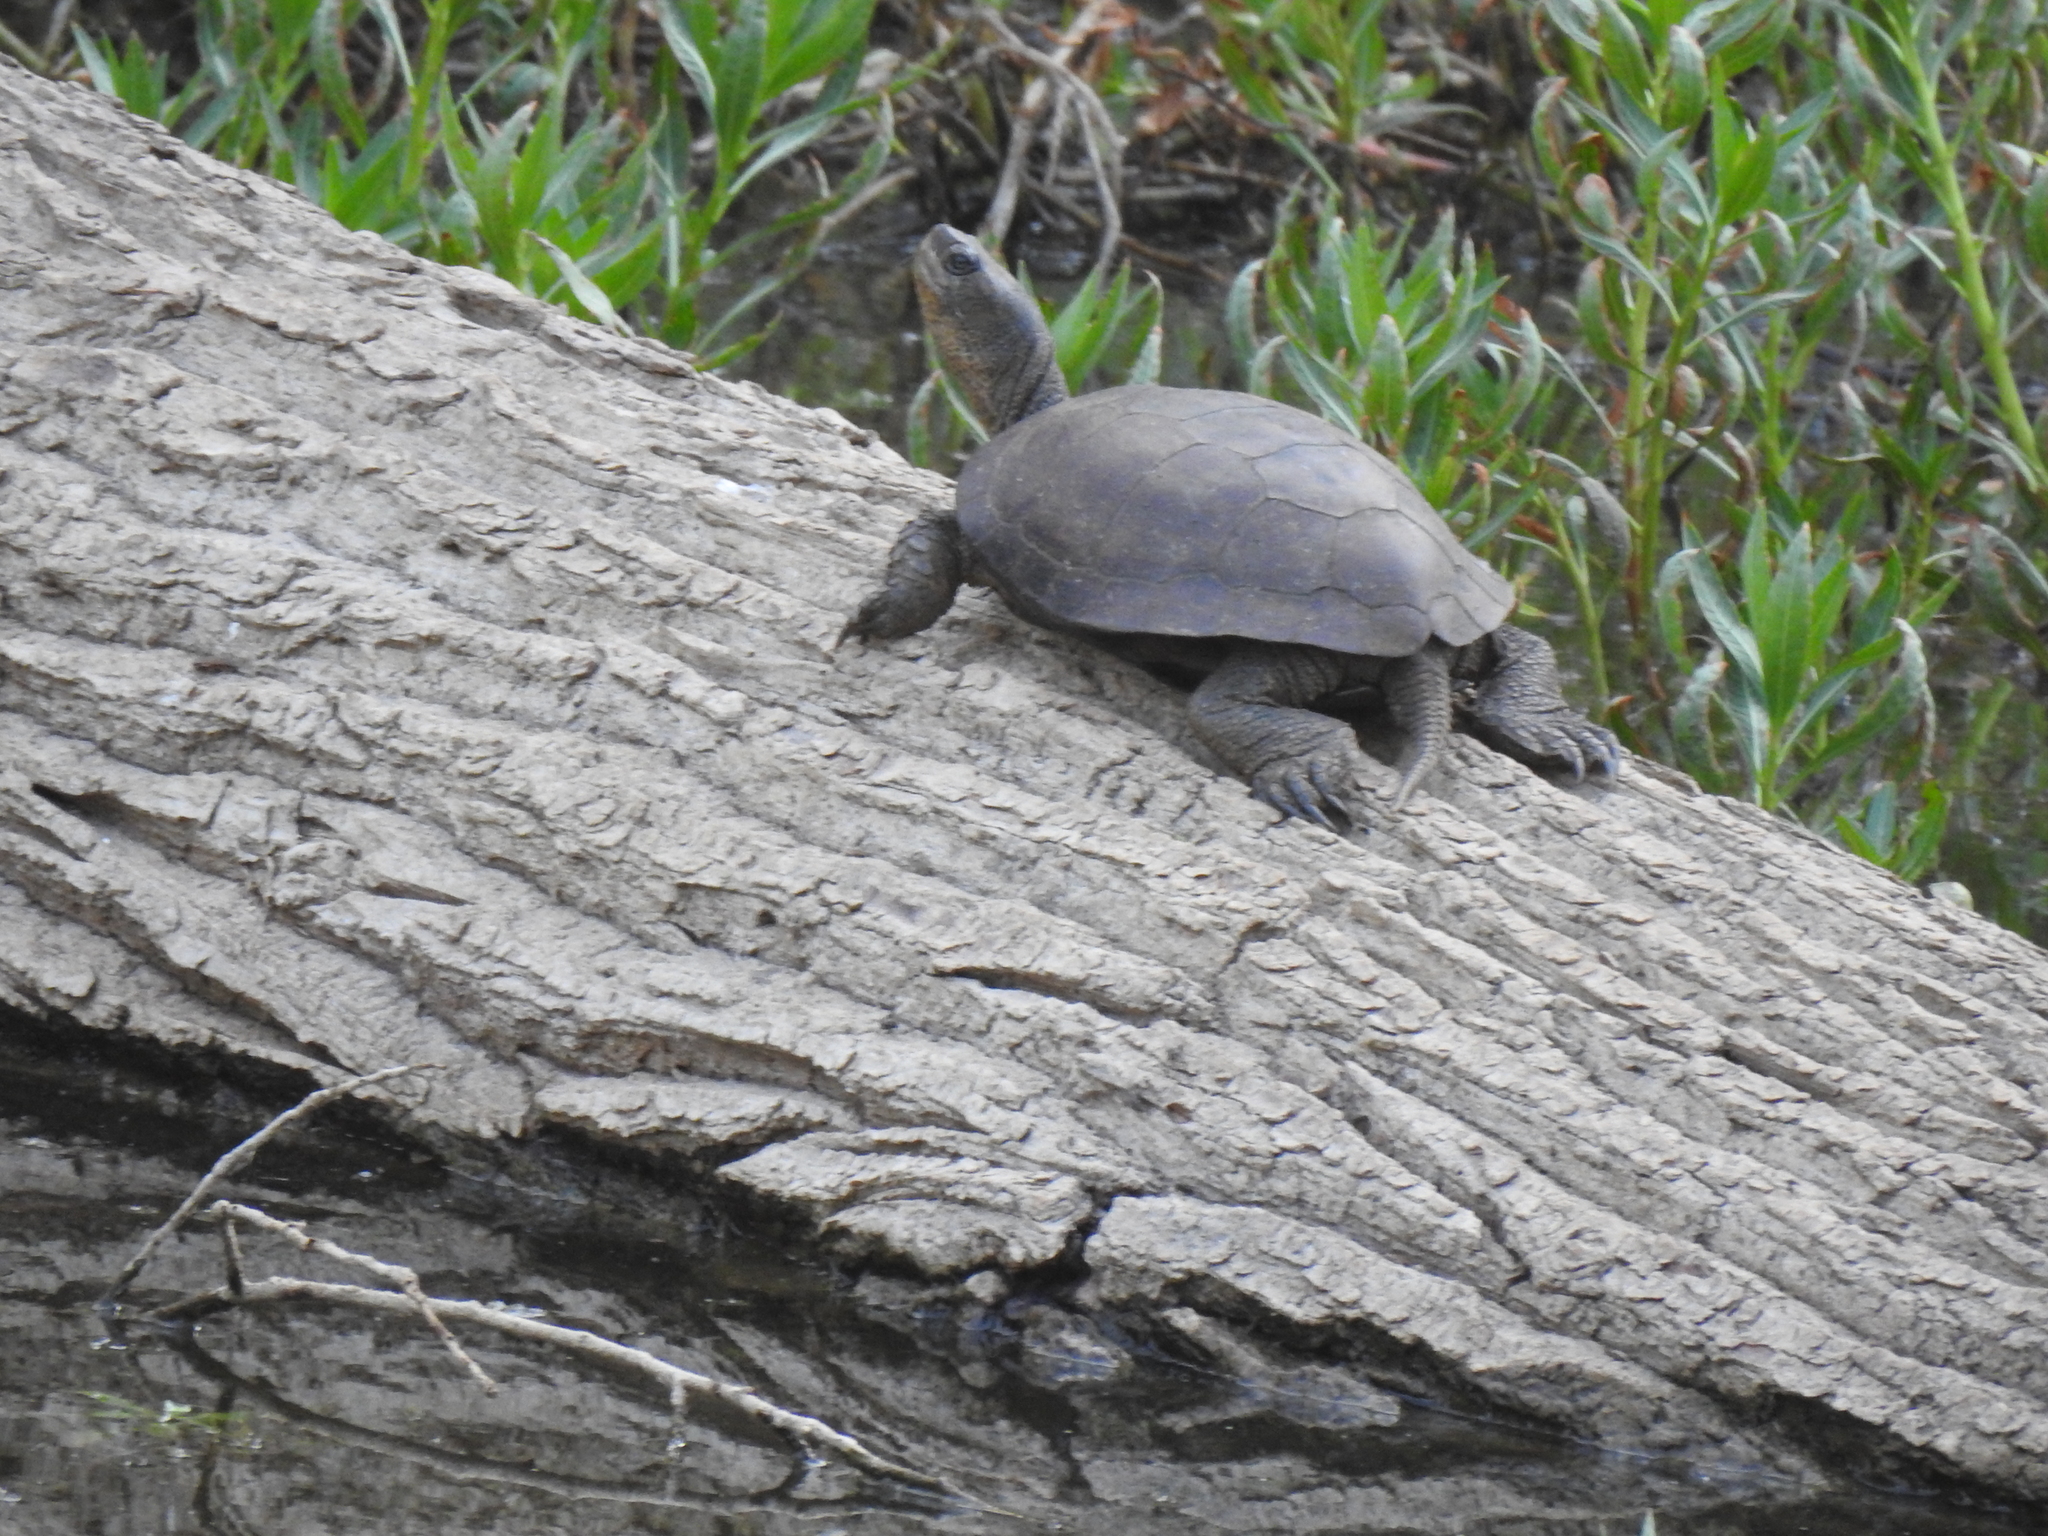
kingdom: Animalia
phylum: Chordata
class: Testudines
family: Emydidae
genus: Actinemys
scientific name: Actinemys marmorata
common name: Western pond turtle
